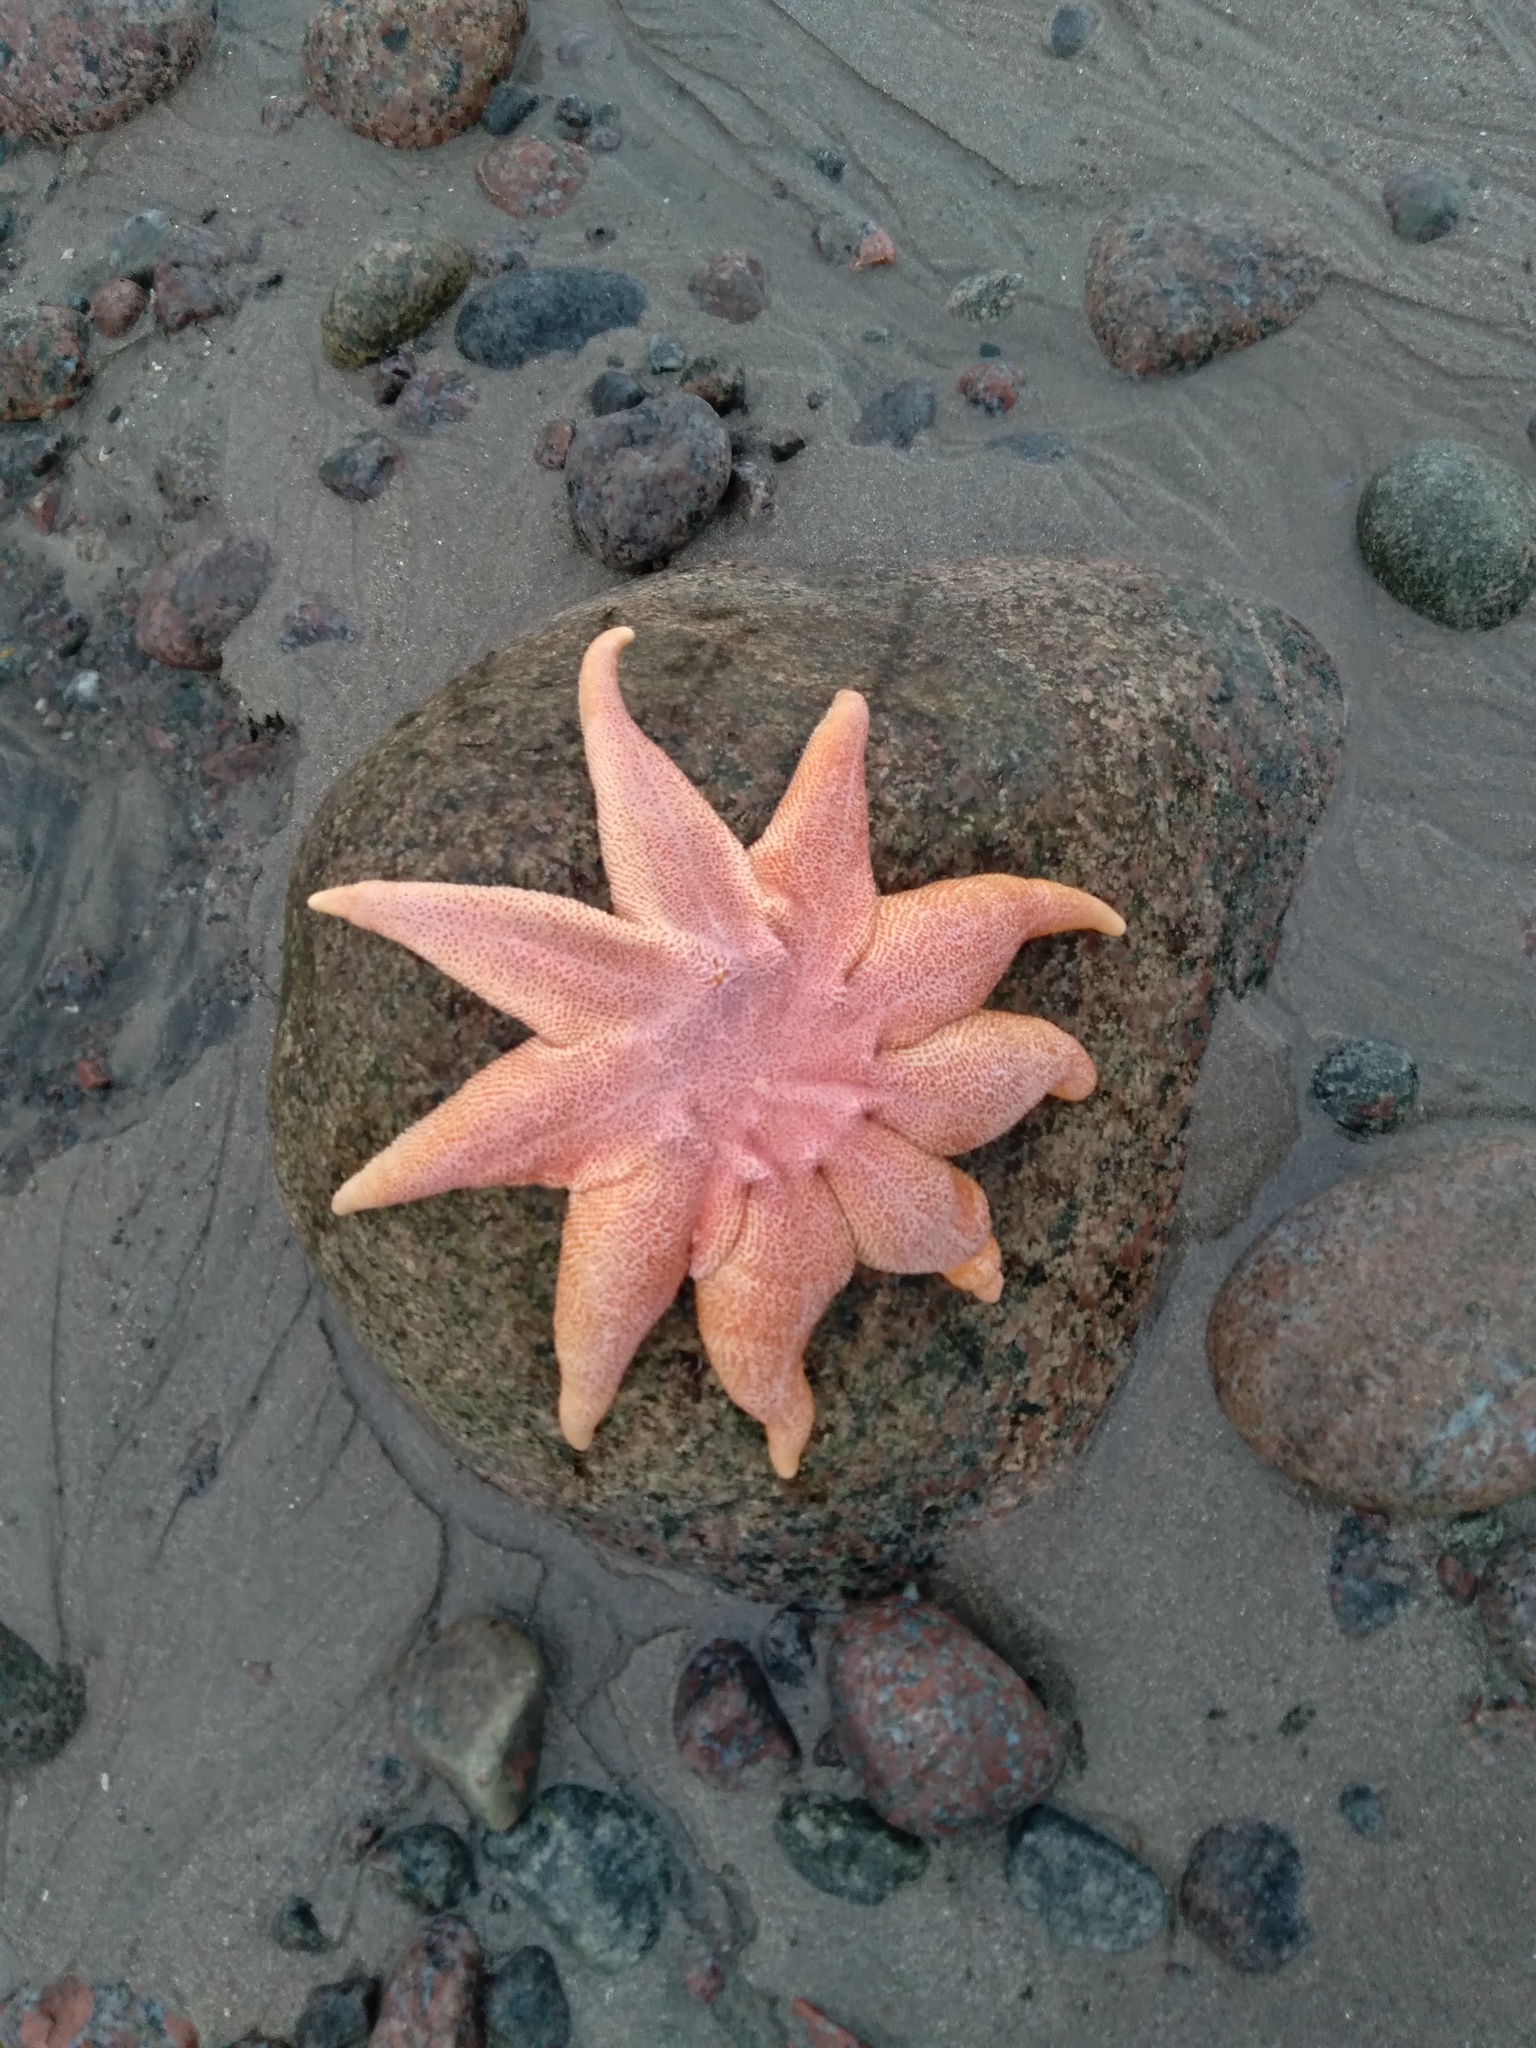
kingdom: Animalia
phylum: Echinodermata
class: Asteroidea
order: Valvatida
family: Solasteridae
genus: Solaster
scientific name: Solaster endeca
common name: Purple sun star
